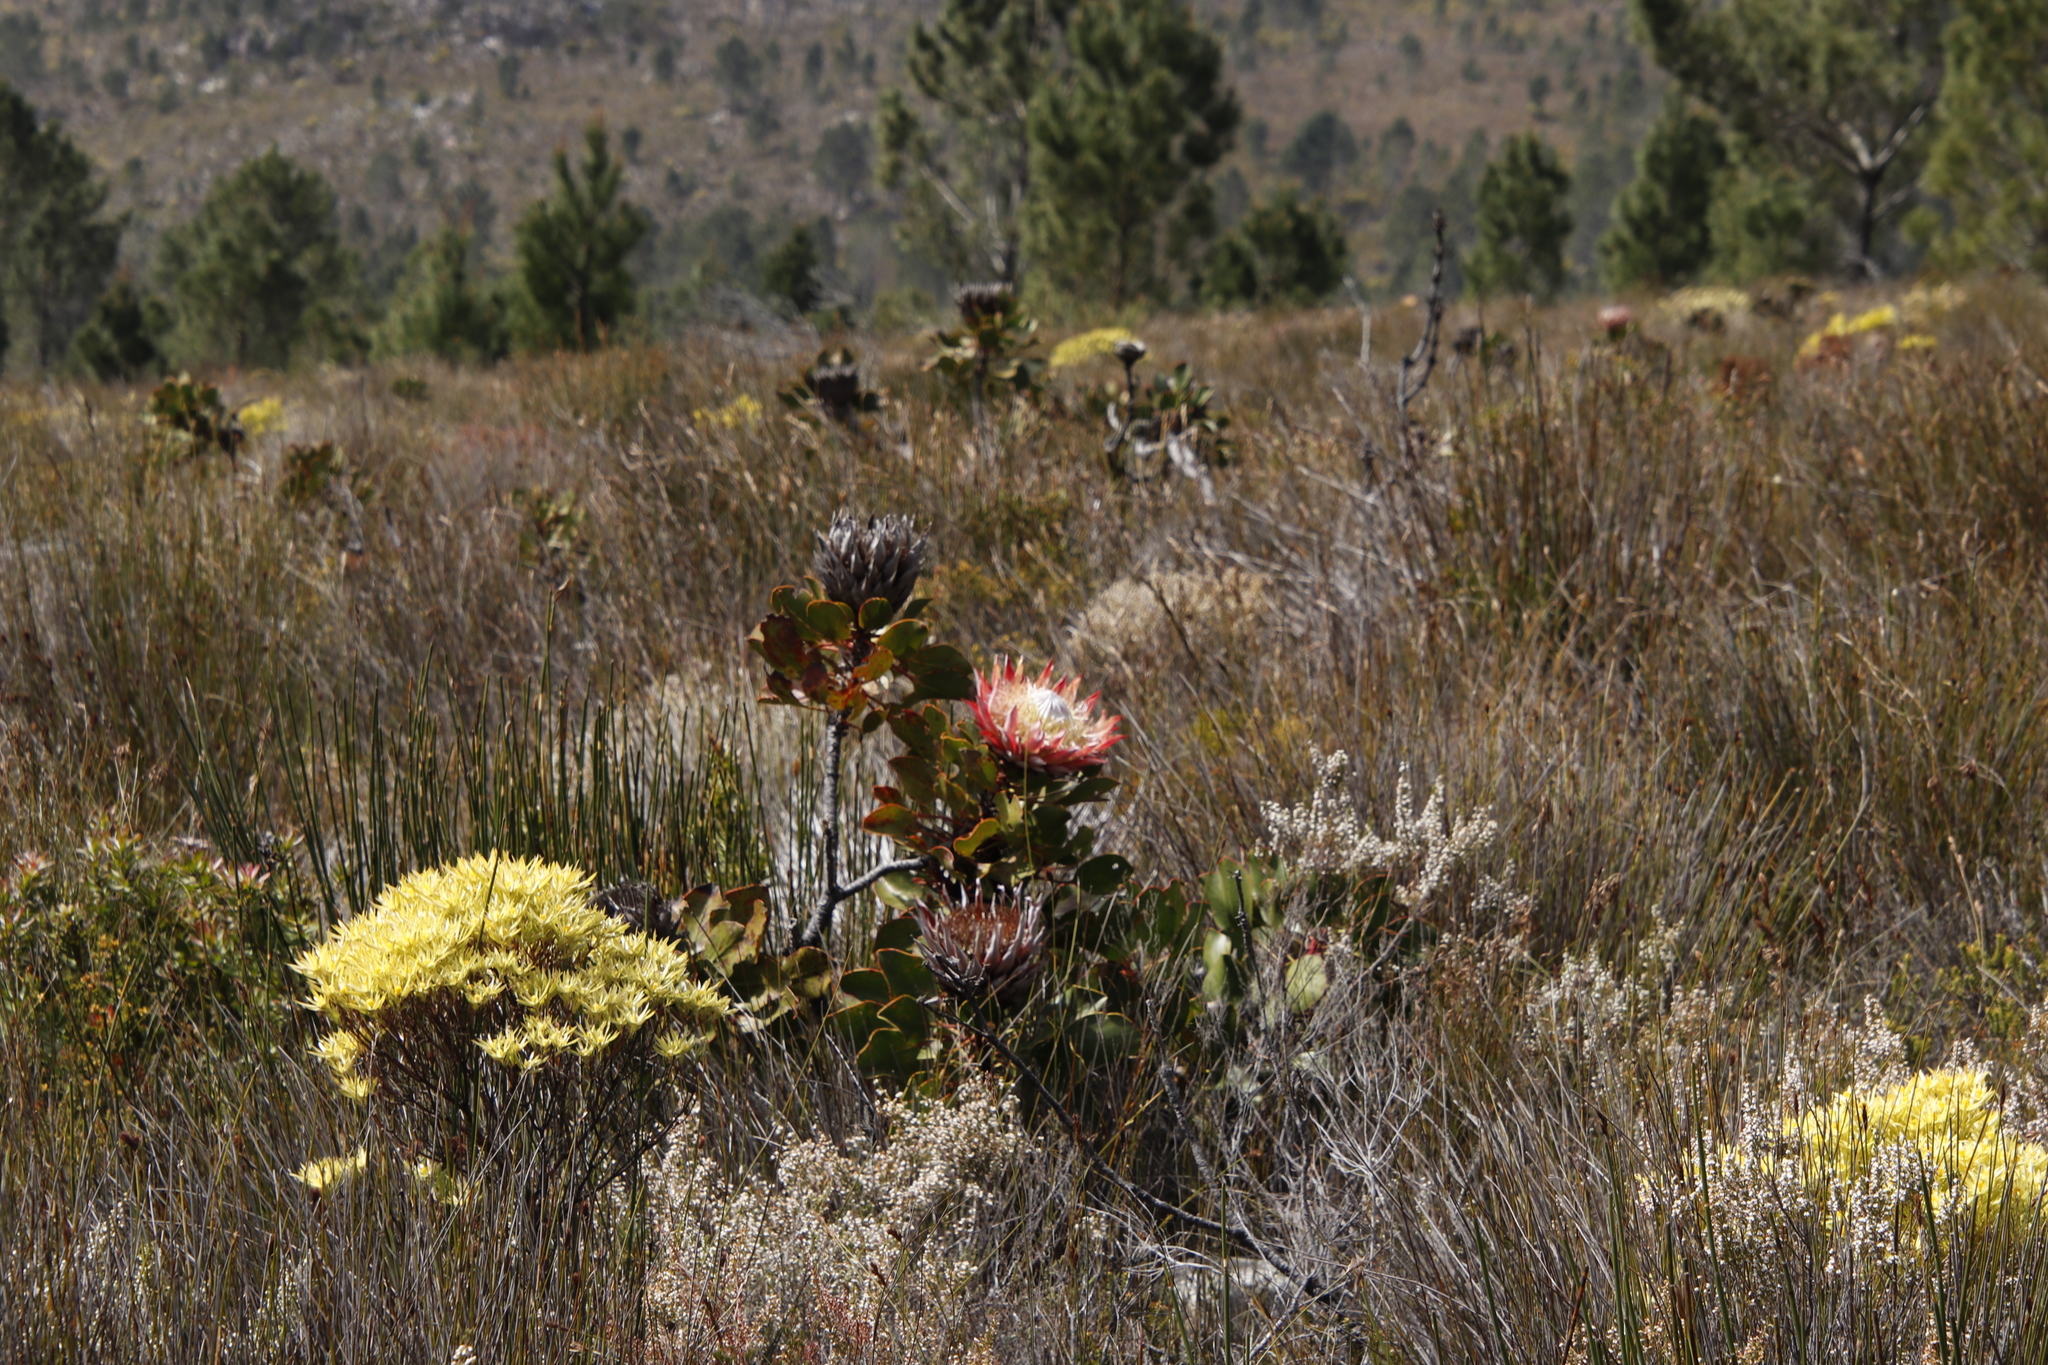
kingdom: Plantae
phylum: Tracheophyta
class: Magnoliopsida
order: Proteales
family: Proteaceae
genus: Protea
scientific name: Protea cynaroides
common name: King protea
